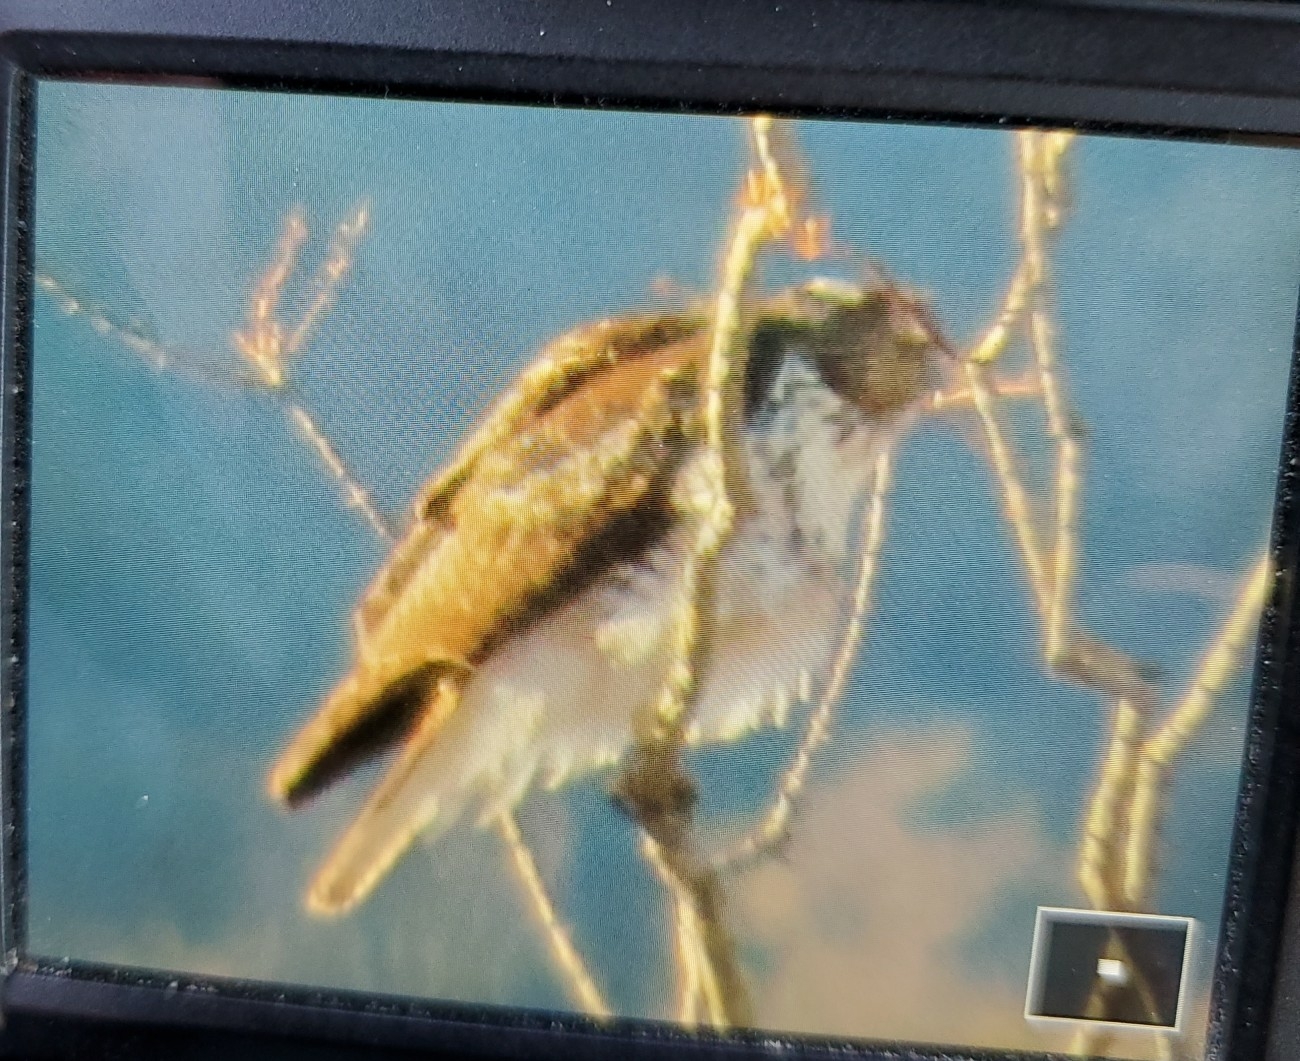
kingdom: Animalia
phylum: Chordata
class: Aves
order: Accipitriformes
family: Accipitridae
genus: Buteo
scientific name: Buteo jamaicensis
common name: Red-tailed hawk
